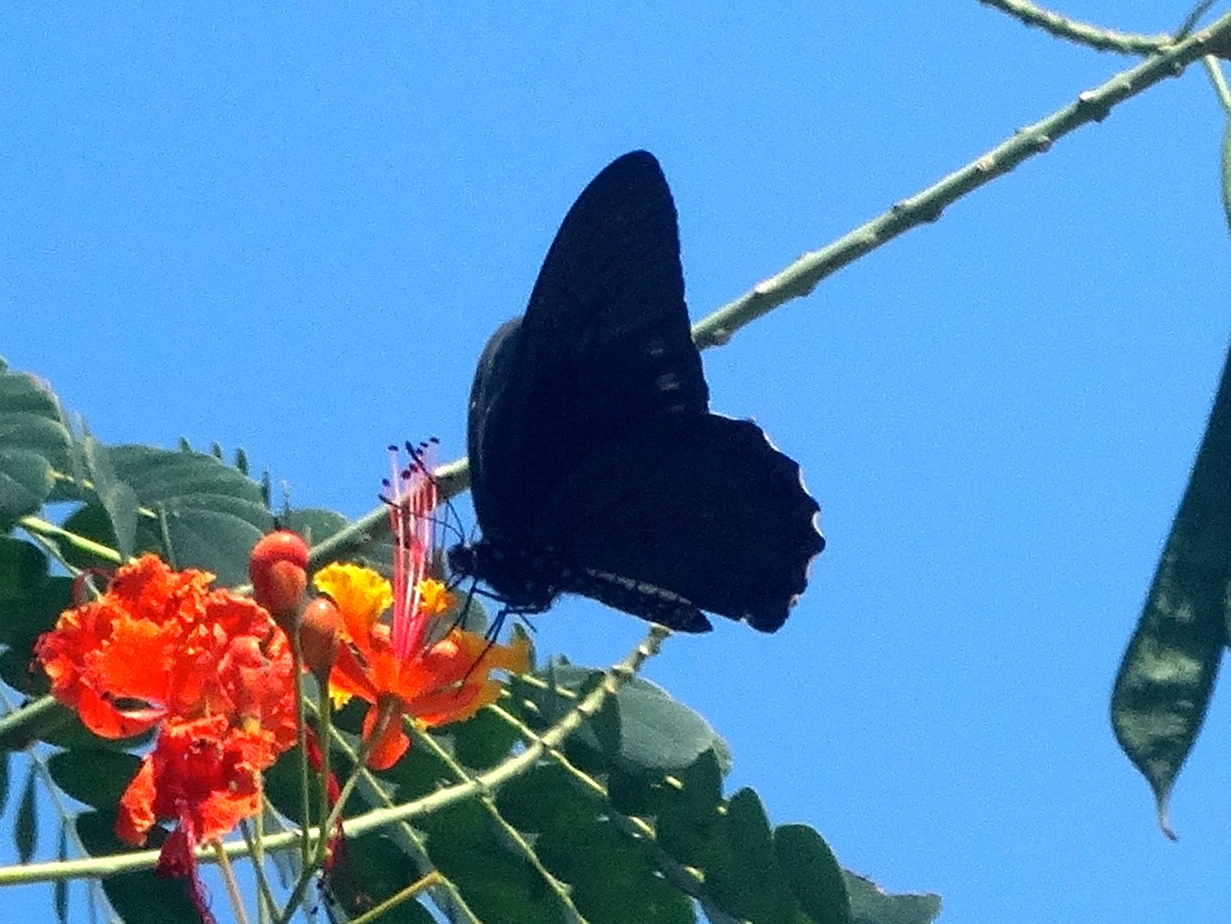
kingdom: Animalia
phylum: Arthropoda
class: Insecta
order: Lepidoptera
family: Papilionidae
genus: Battus
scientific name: Battus laodamas
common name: Green-patch swallowtail
